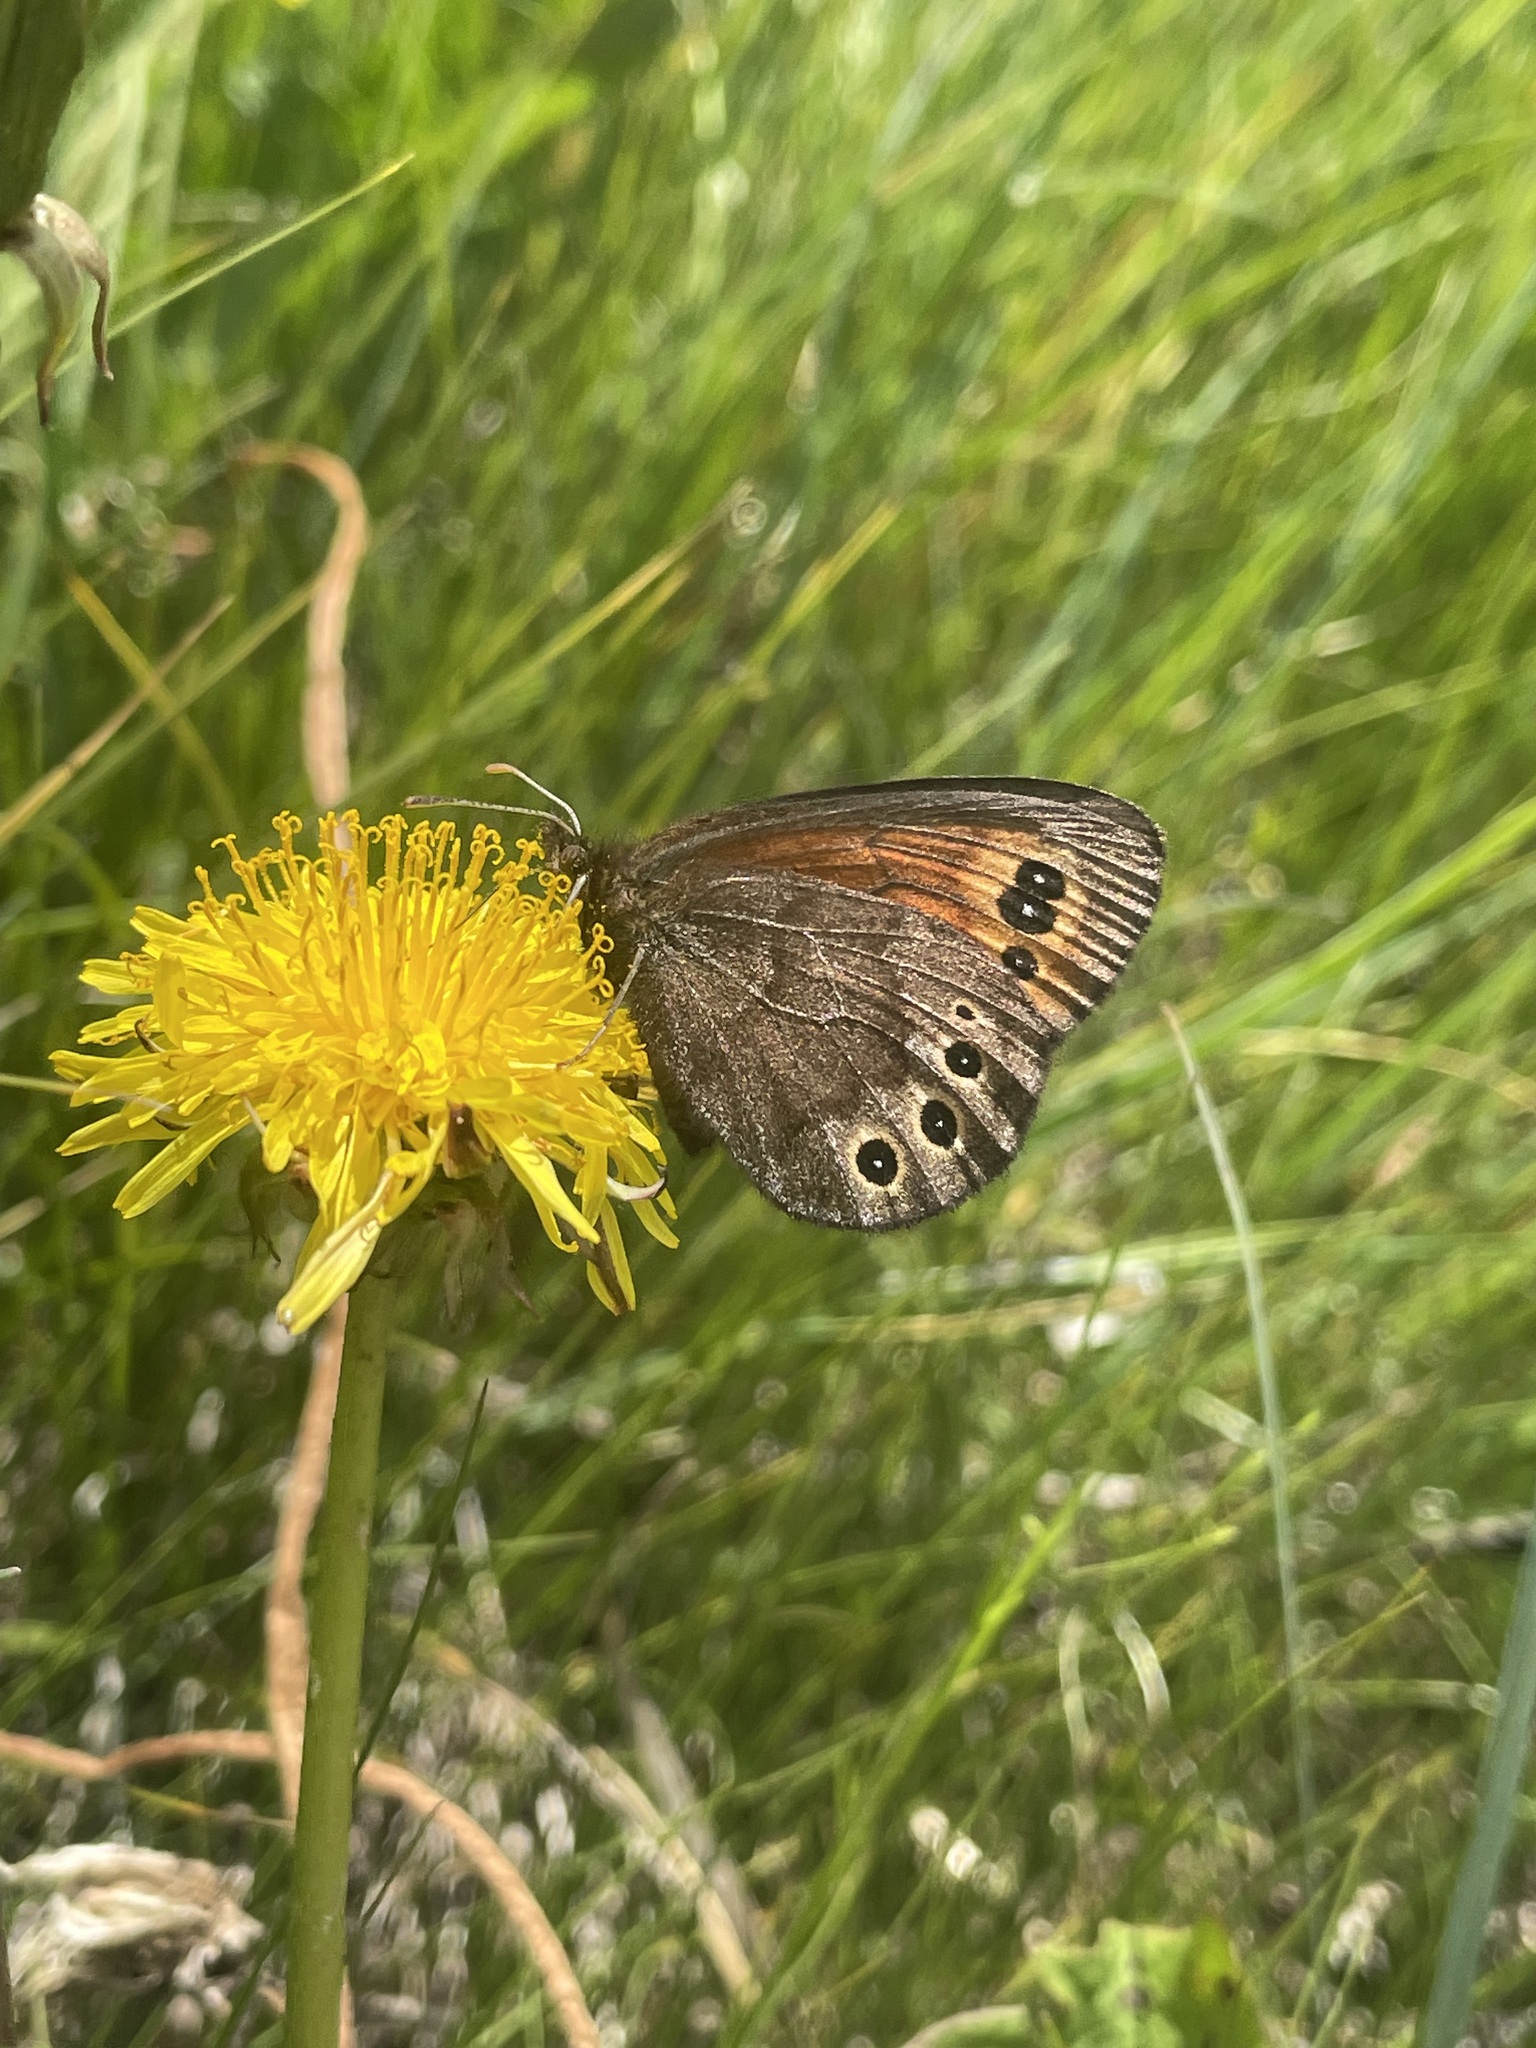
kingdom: Animalia
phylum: Arthropoda
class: Insecta
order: Lepidoptera
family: Nymphalidae
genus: Erebia
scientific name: Erebia epipsodea
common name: Common alpine
